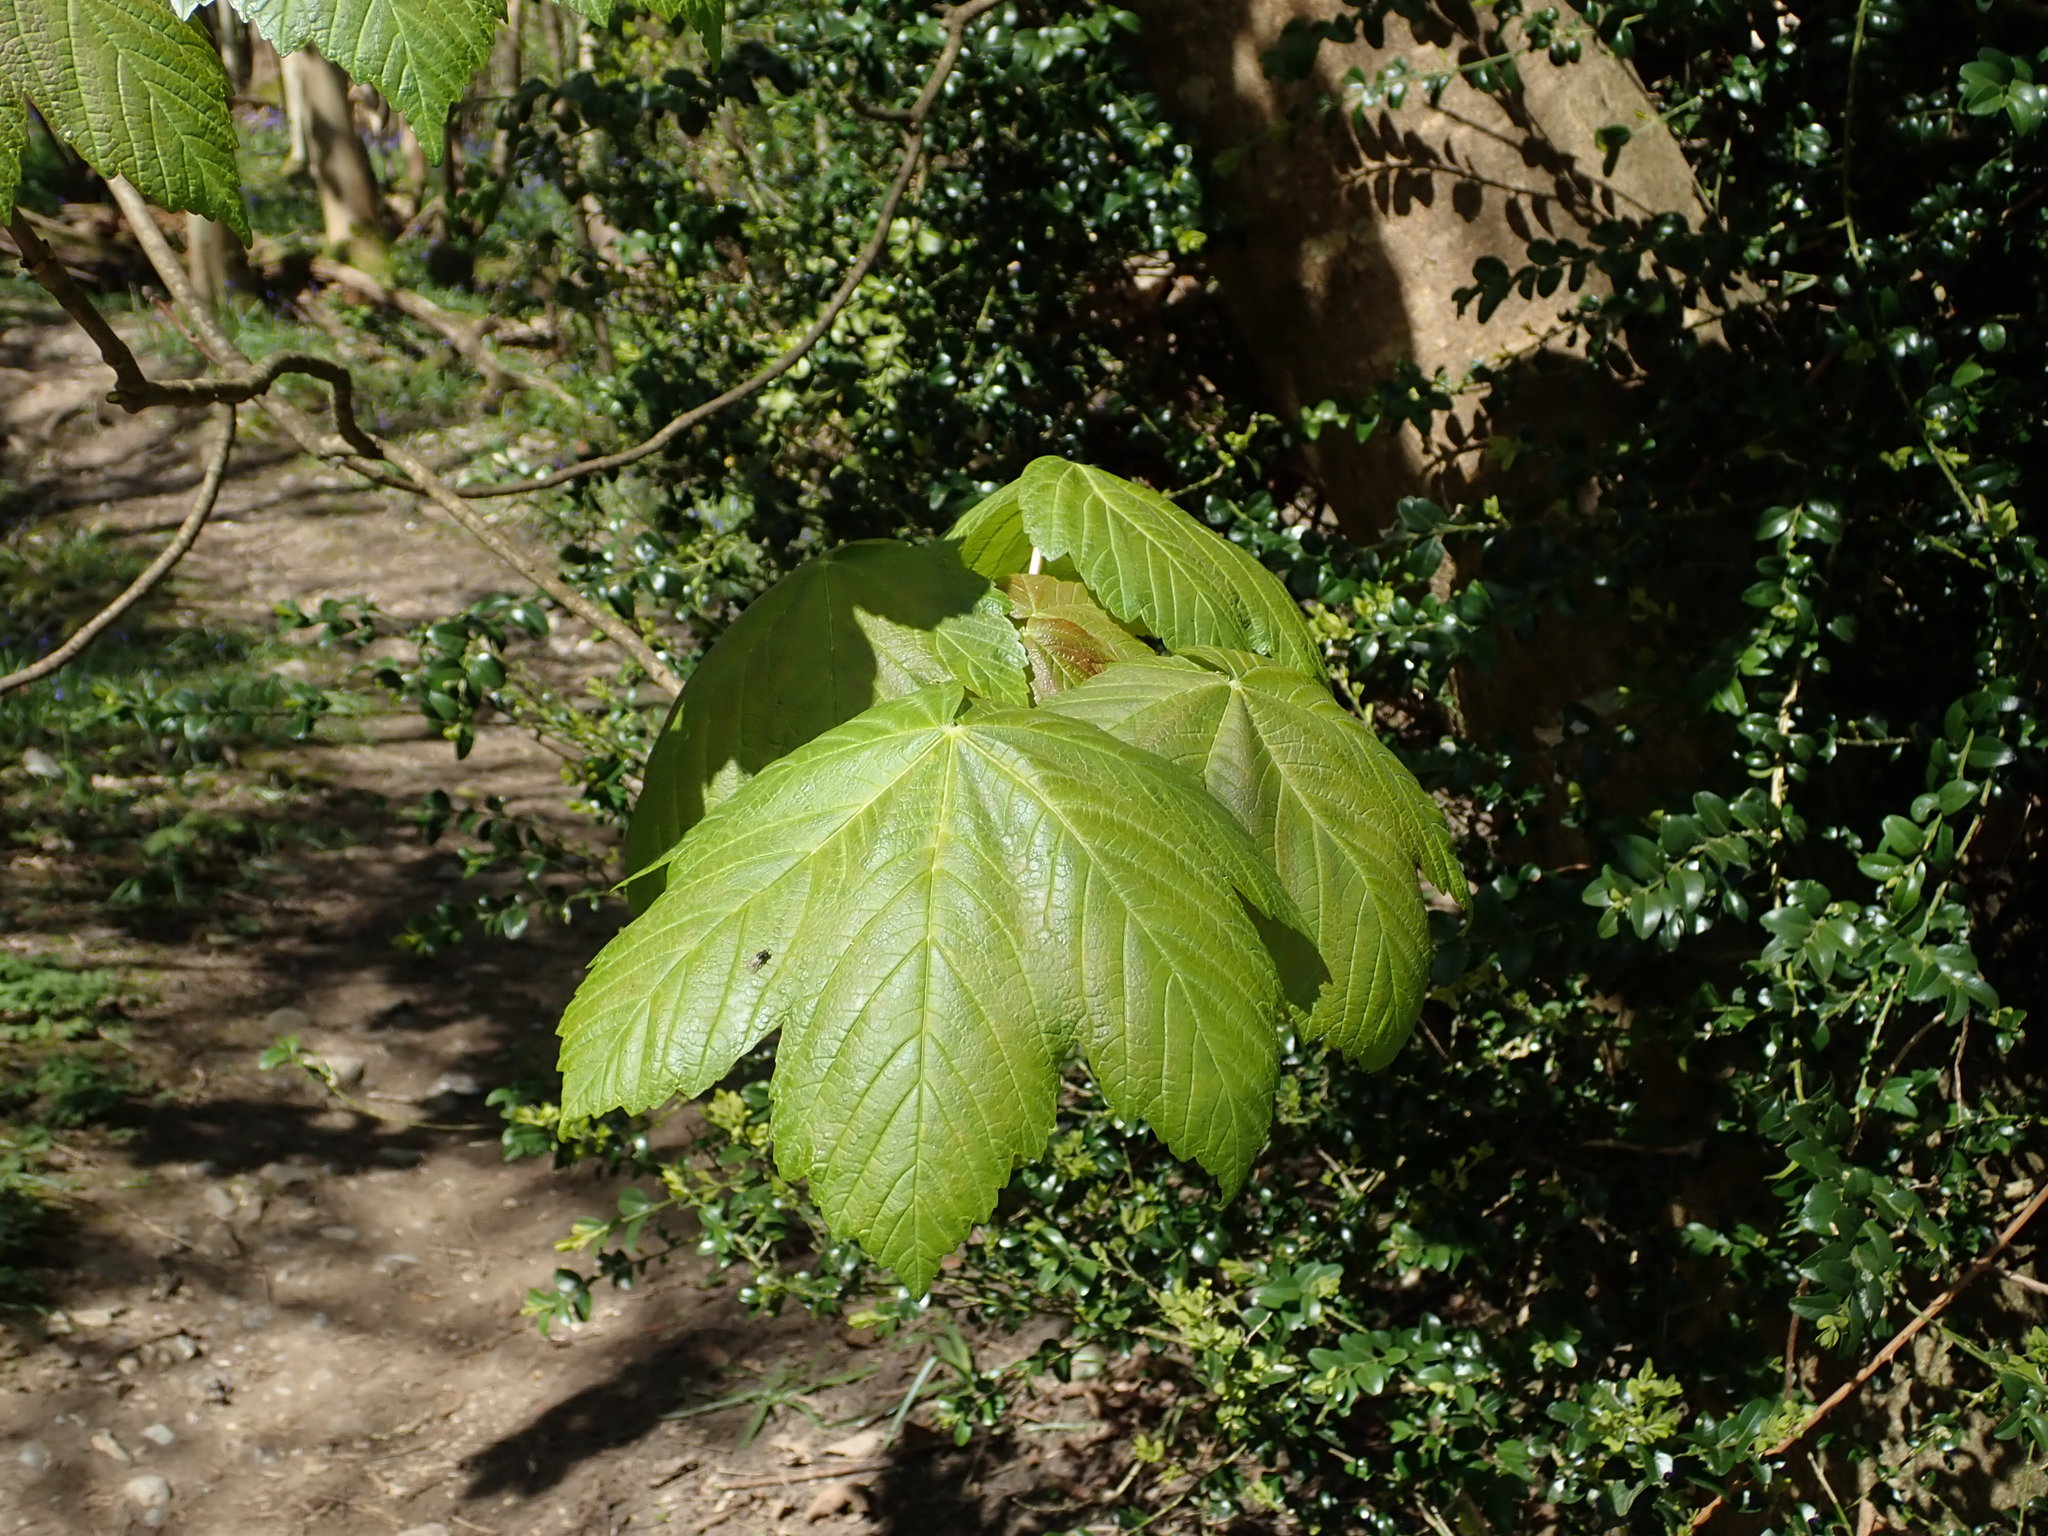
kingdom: Plantae
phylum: Tracheophyta
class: Magnoliopsida
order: Sapindales
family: Sapindaceae
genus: Acer
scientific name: Acer pseudoplatanus
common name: Sycamore
